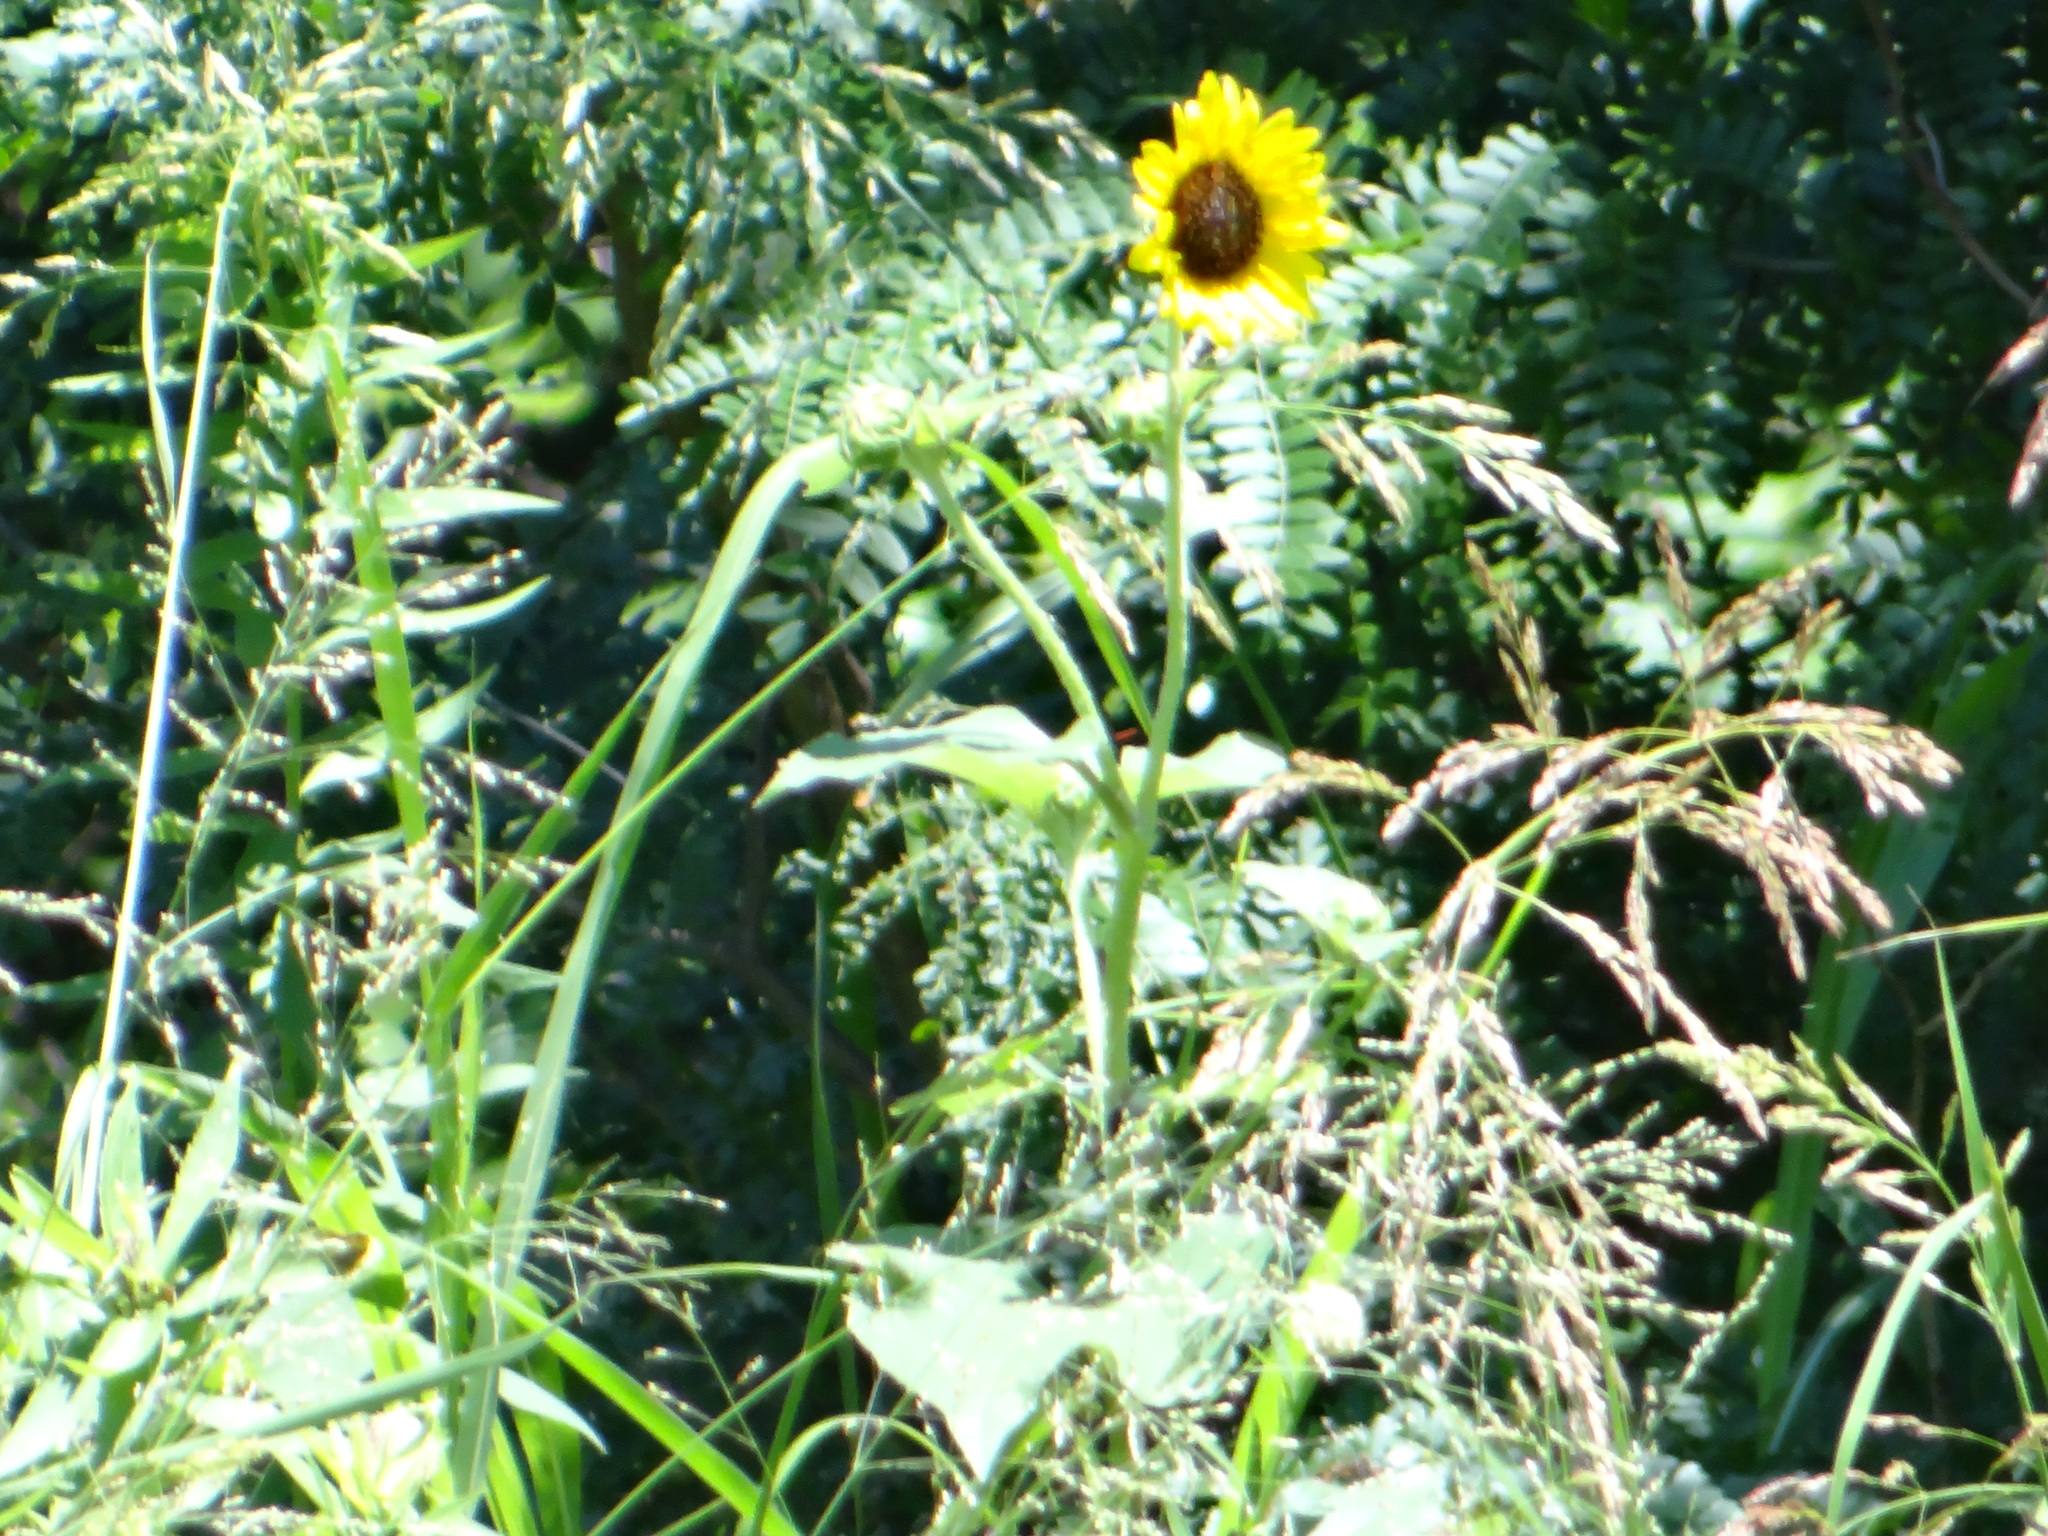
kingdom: Plantae
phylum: Tracheophyta
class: Magnoliopsida
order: Asterales
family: Asteraceae
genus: Helianthus
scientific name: Helianthus annuus
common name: Sunflower
